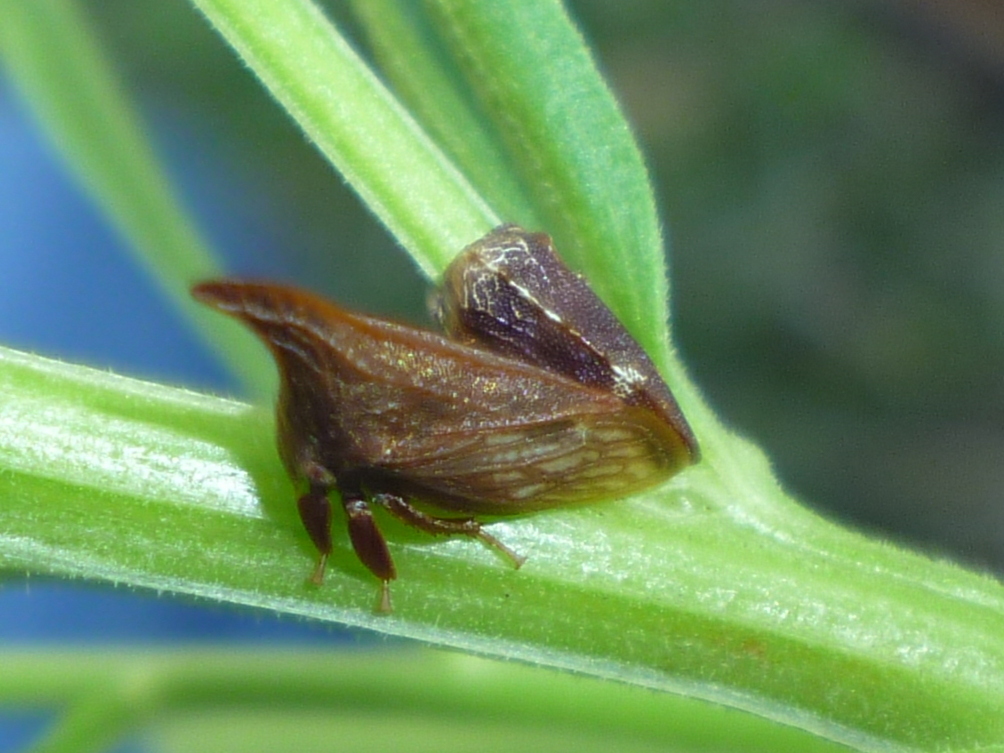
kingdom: Animalia
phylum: Arthropoda
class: Insecta
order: Hemiptera
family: Membracidae
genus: Publilia
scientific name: Publilia concava
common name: Aster treehopper
